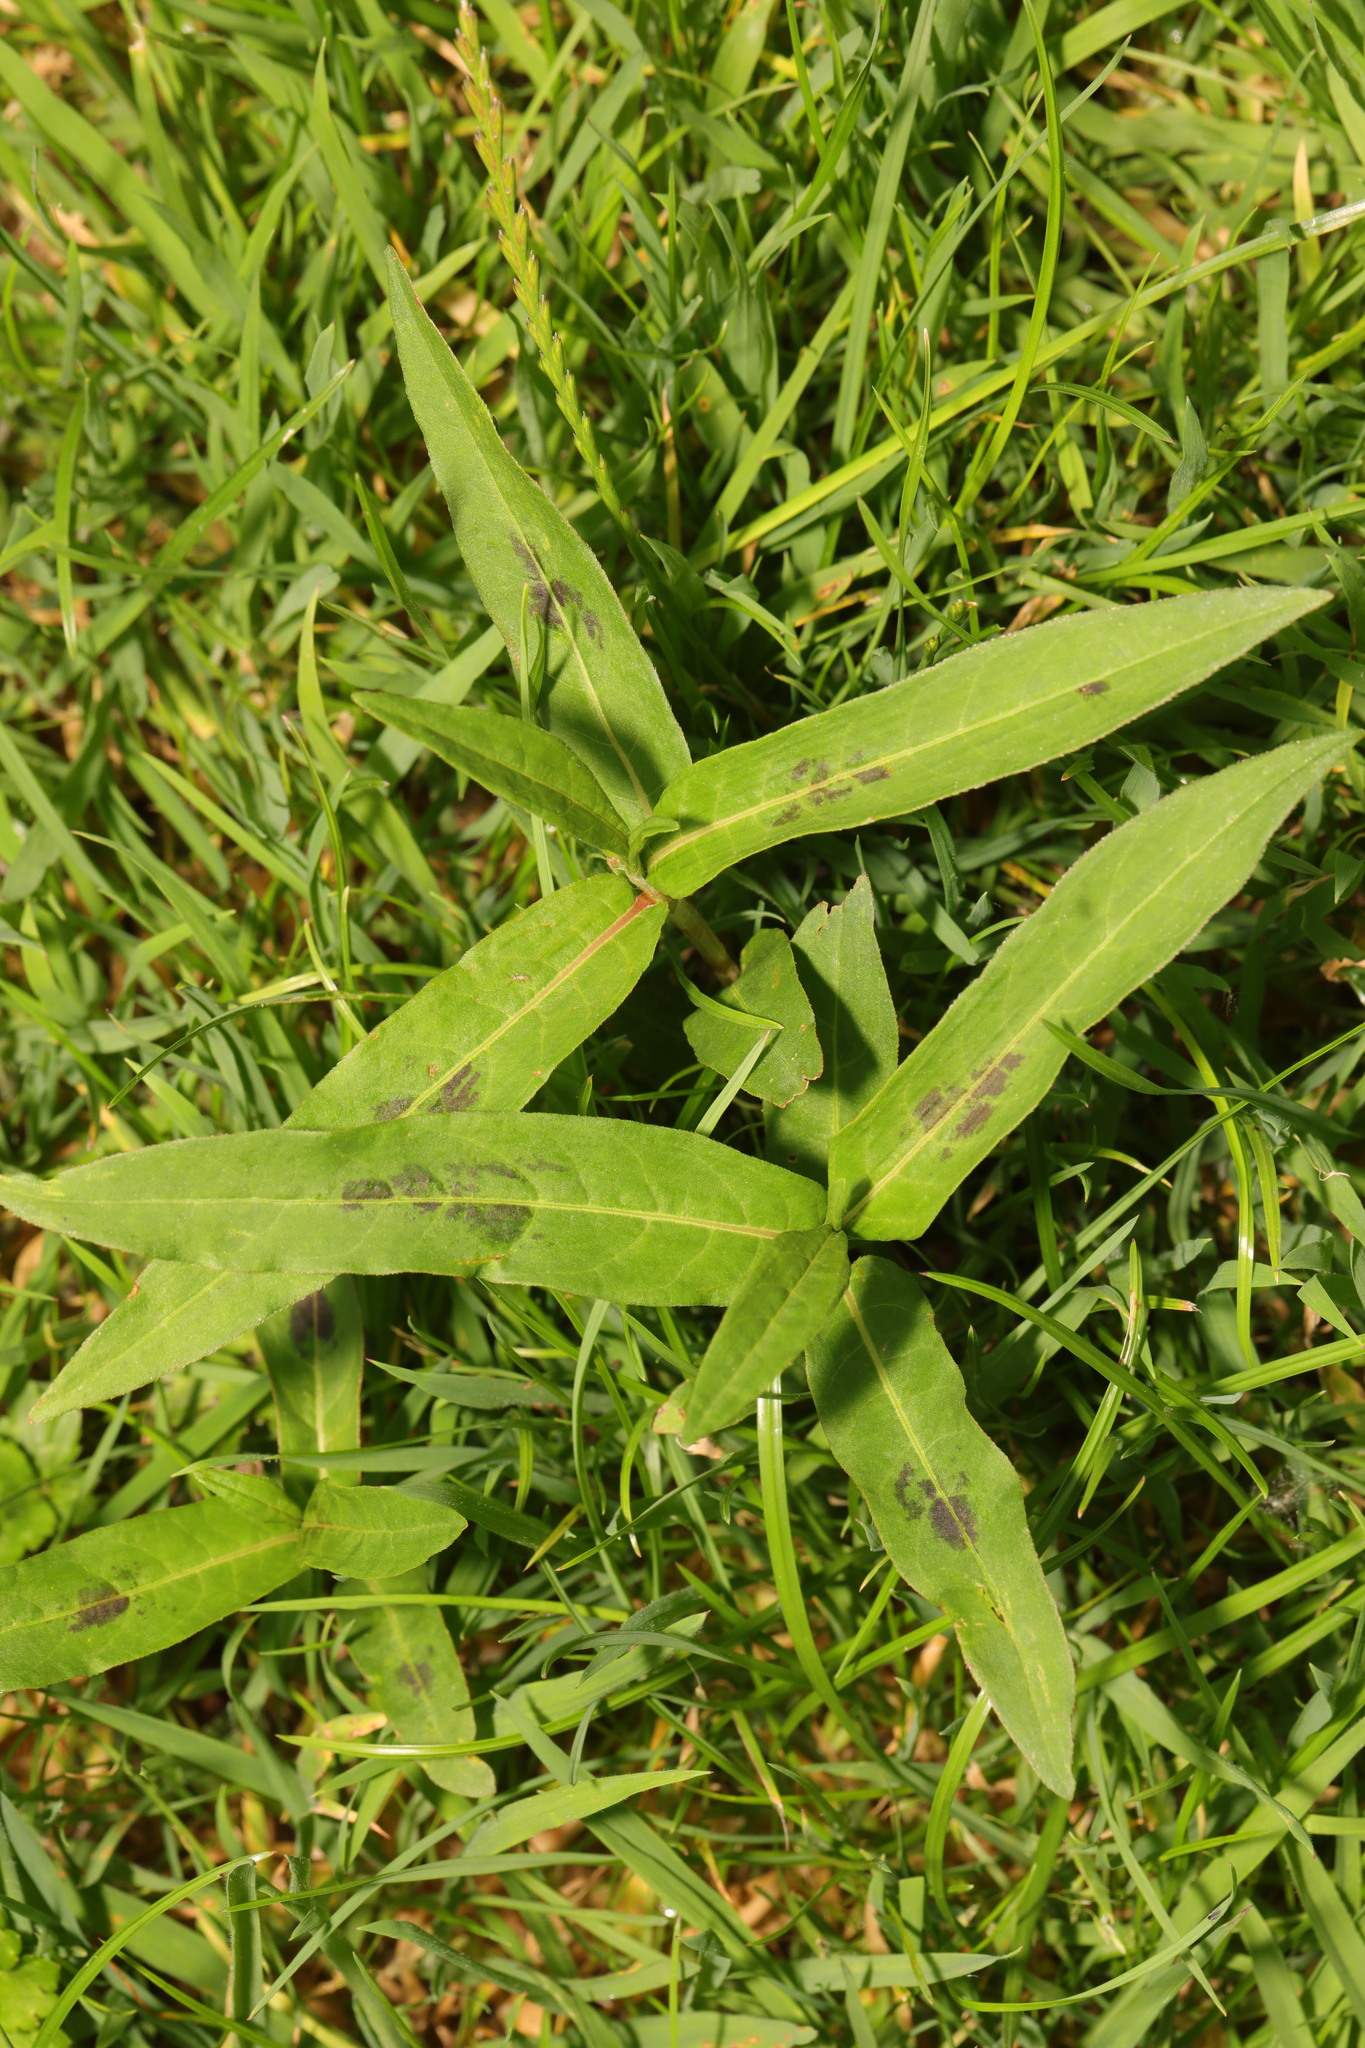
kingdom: Plantae
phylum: Tracheophyta
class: Magnoliopsida
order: Caryophyllales
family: Polygonaceae
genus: Persicaria
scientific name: Persicaria maculosa
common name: Redshank
